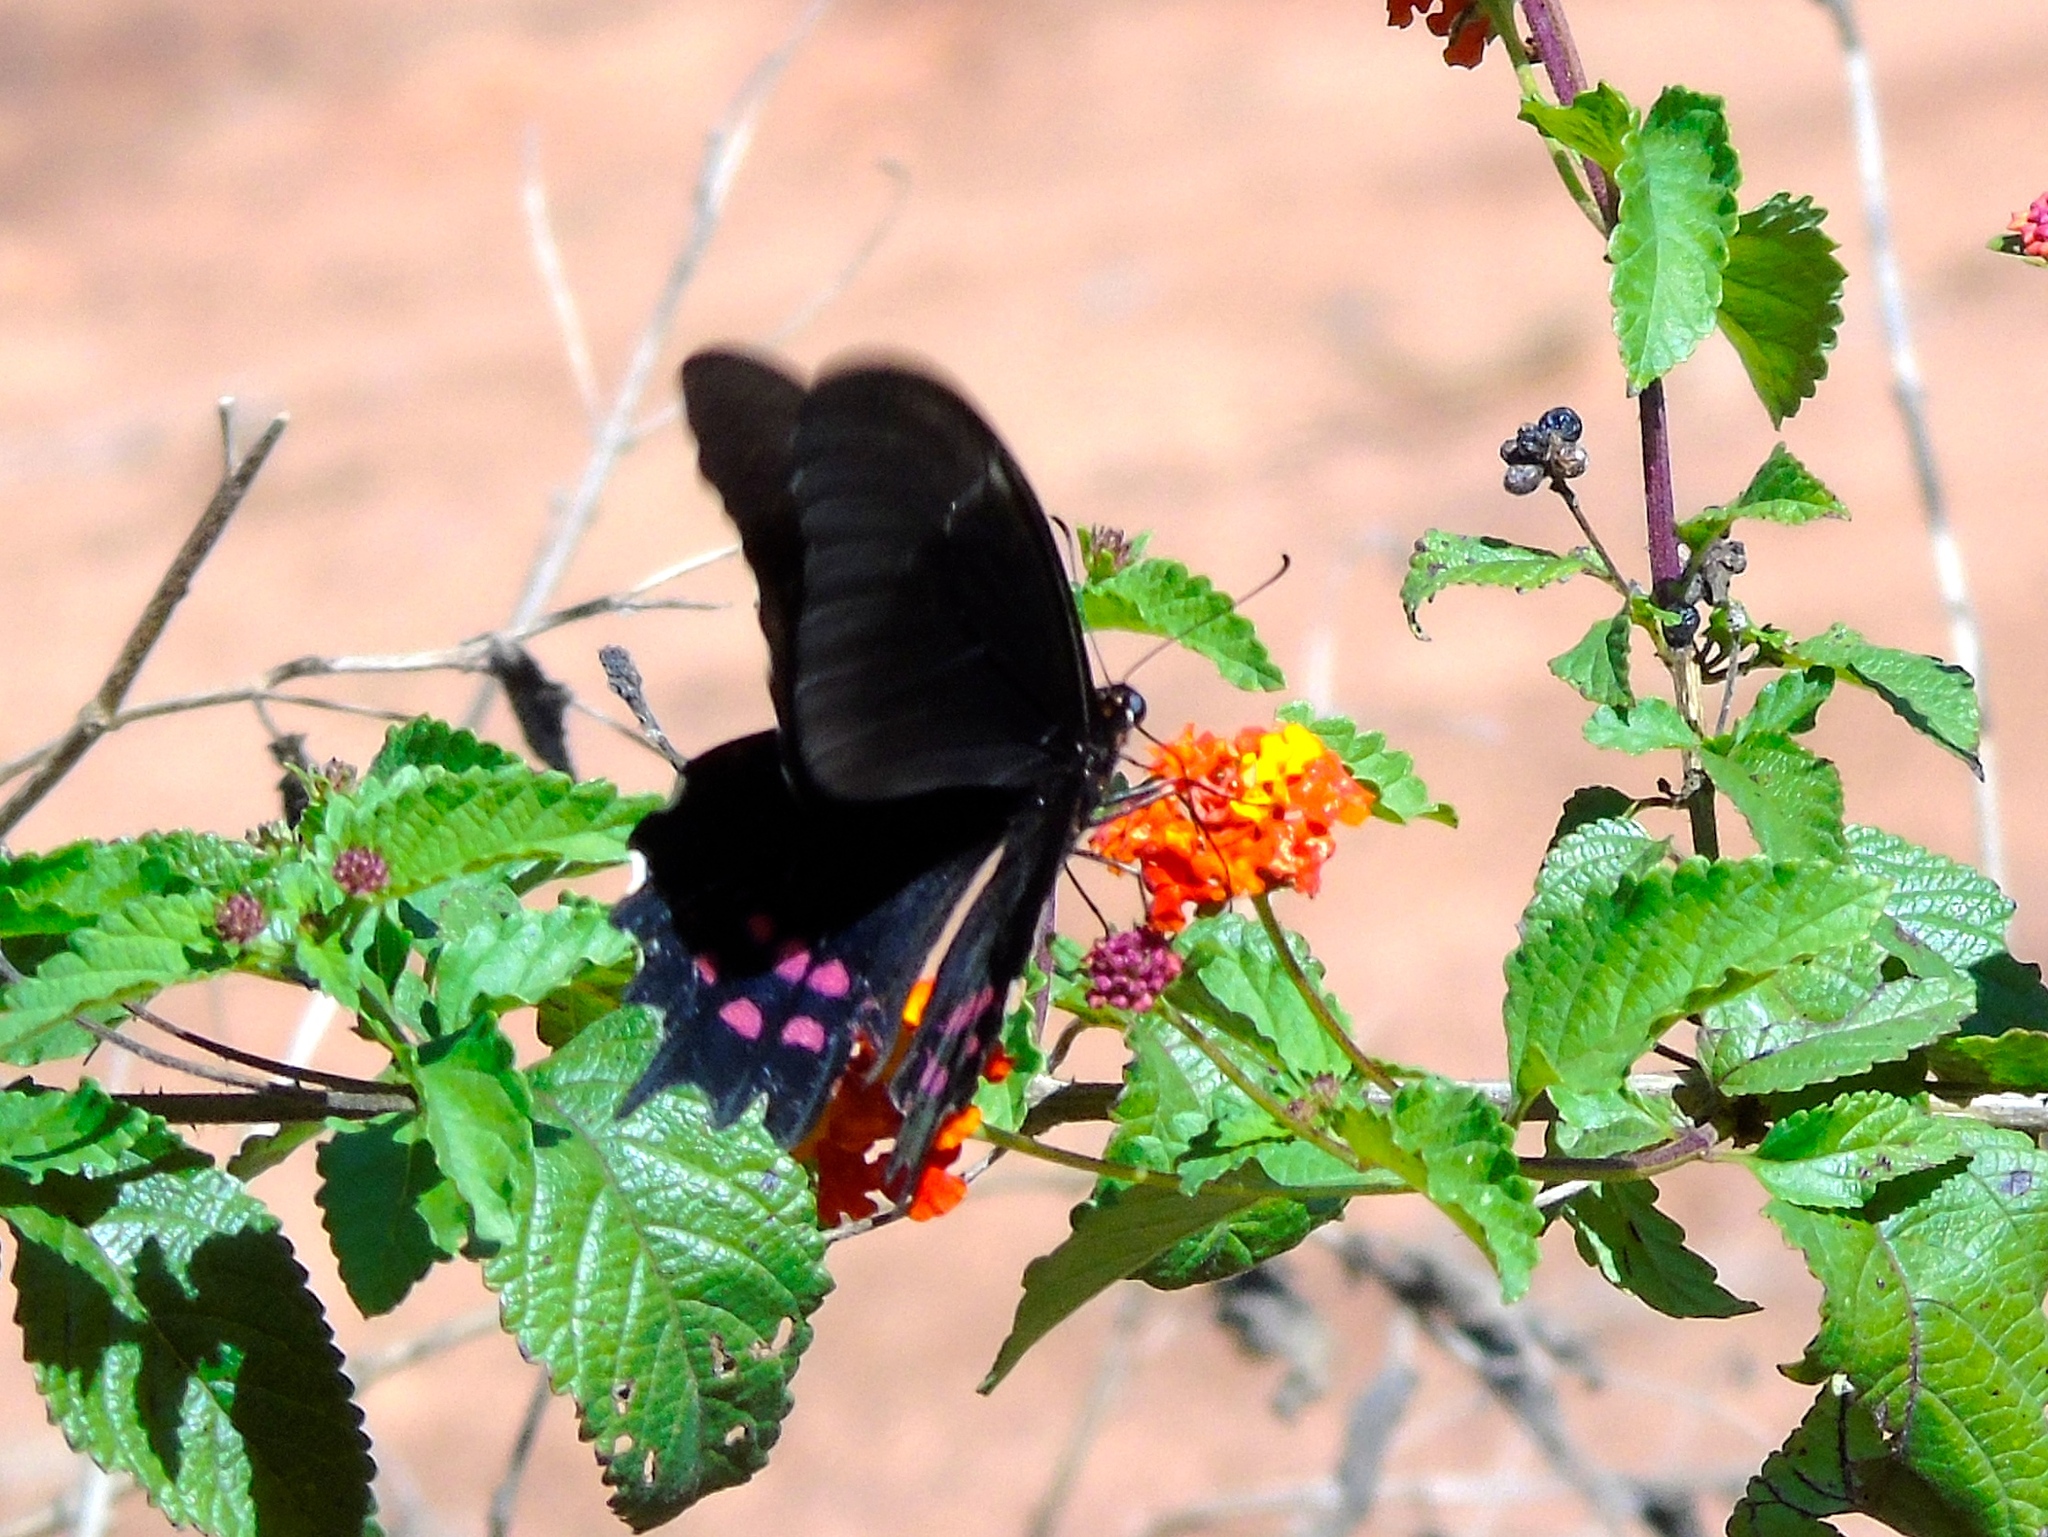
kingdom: Animalia
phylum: Arthropoda
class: Insecta
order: Lepidoptera
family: Papilionidae
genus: Heraclides
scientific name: Heraclides rogeri
